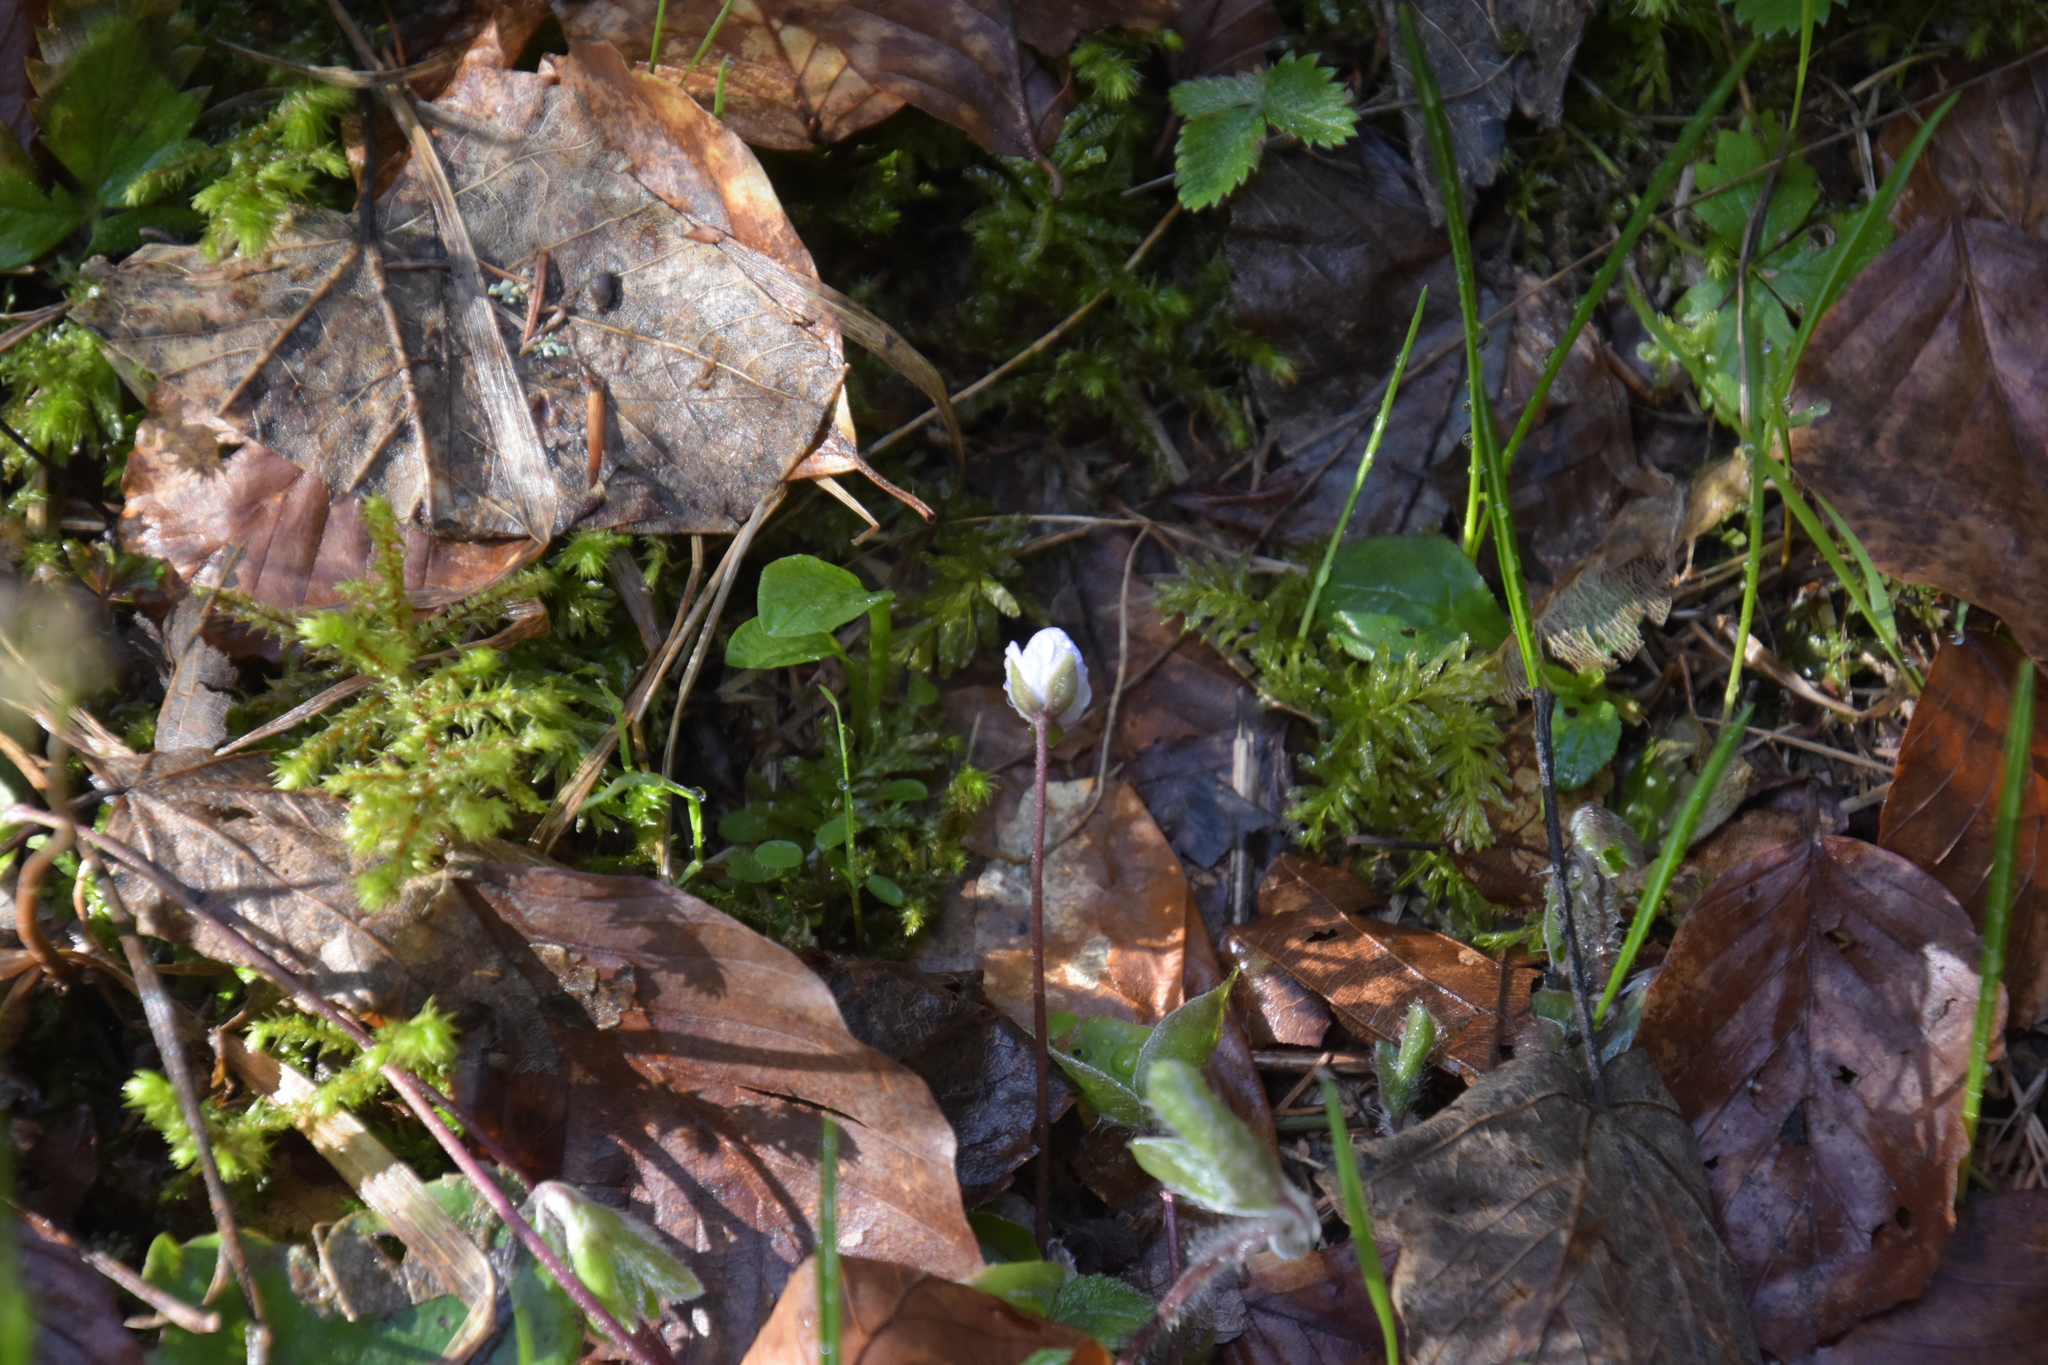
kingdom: Plantae
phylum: Tracheophyta
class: Magnoliopsida
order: Ranunculales
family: Ranunculaceae
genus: Hepatica
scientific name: Hepatica nobilis
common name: Liverleaf
